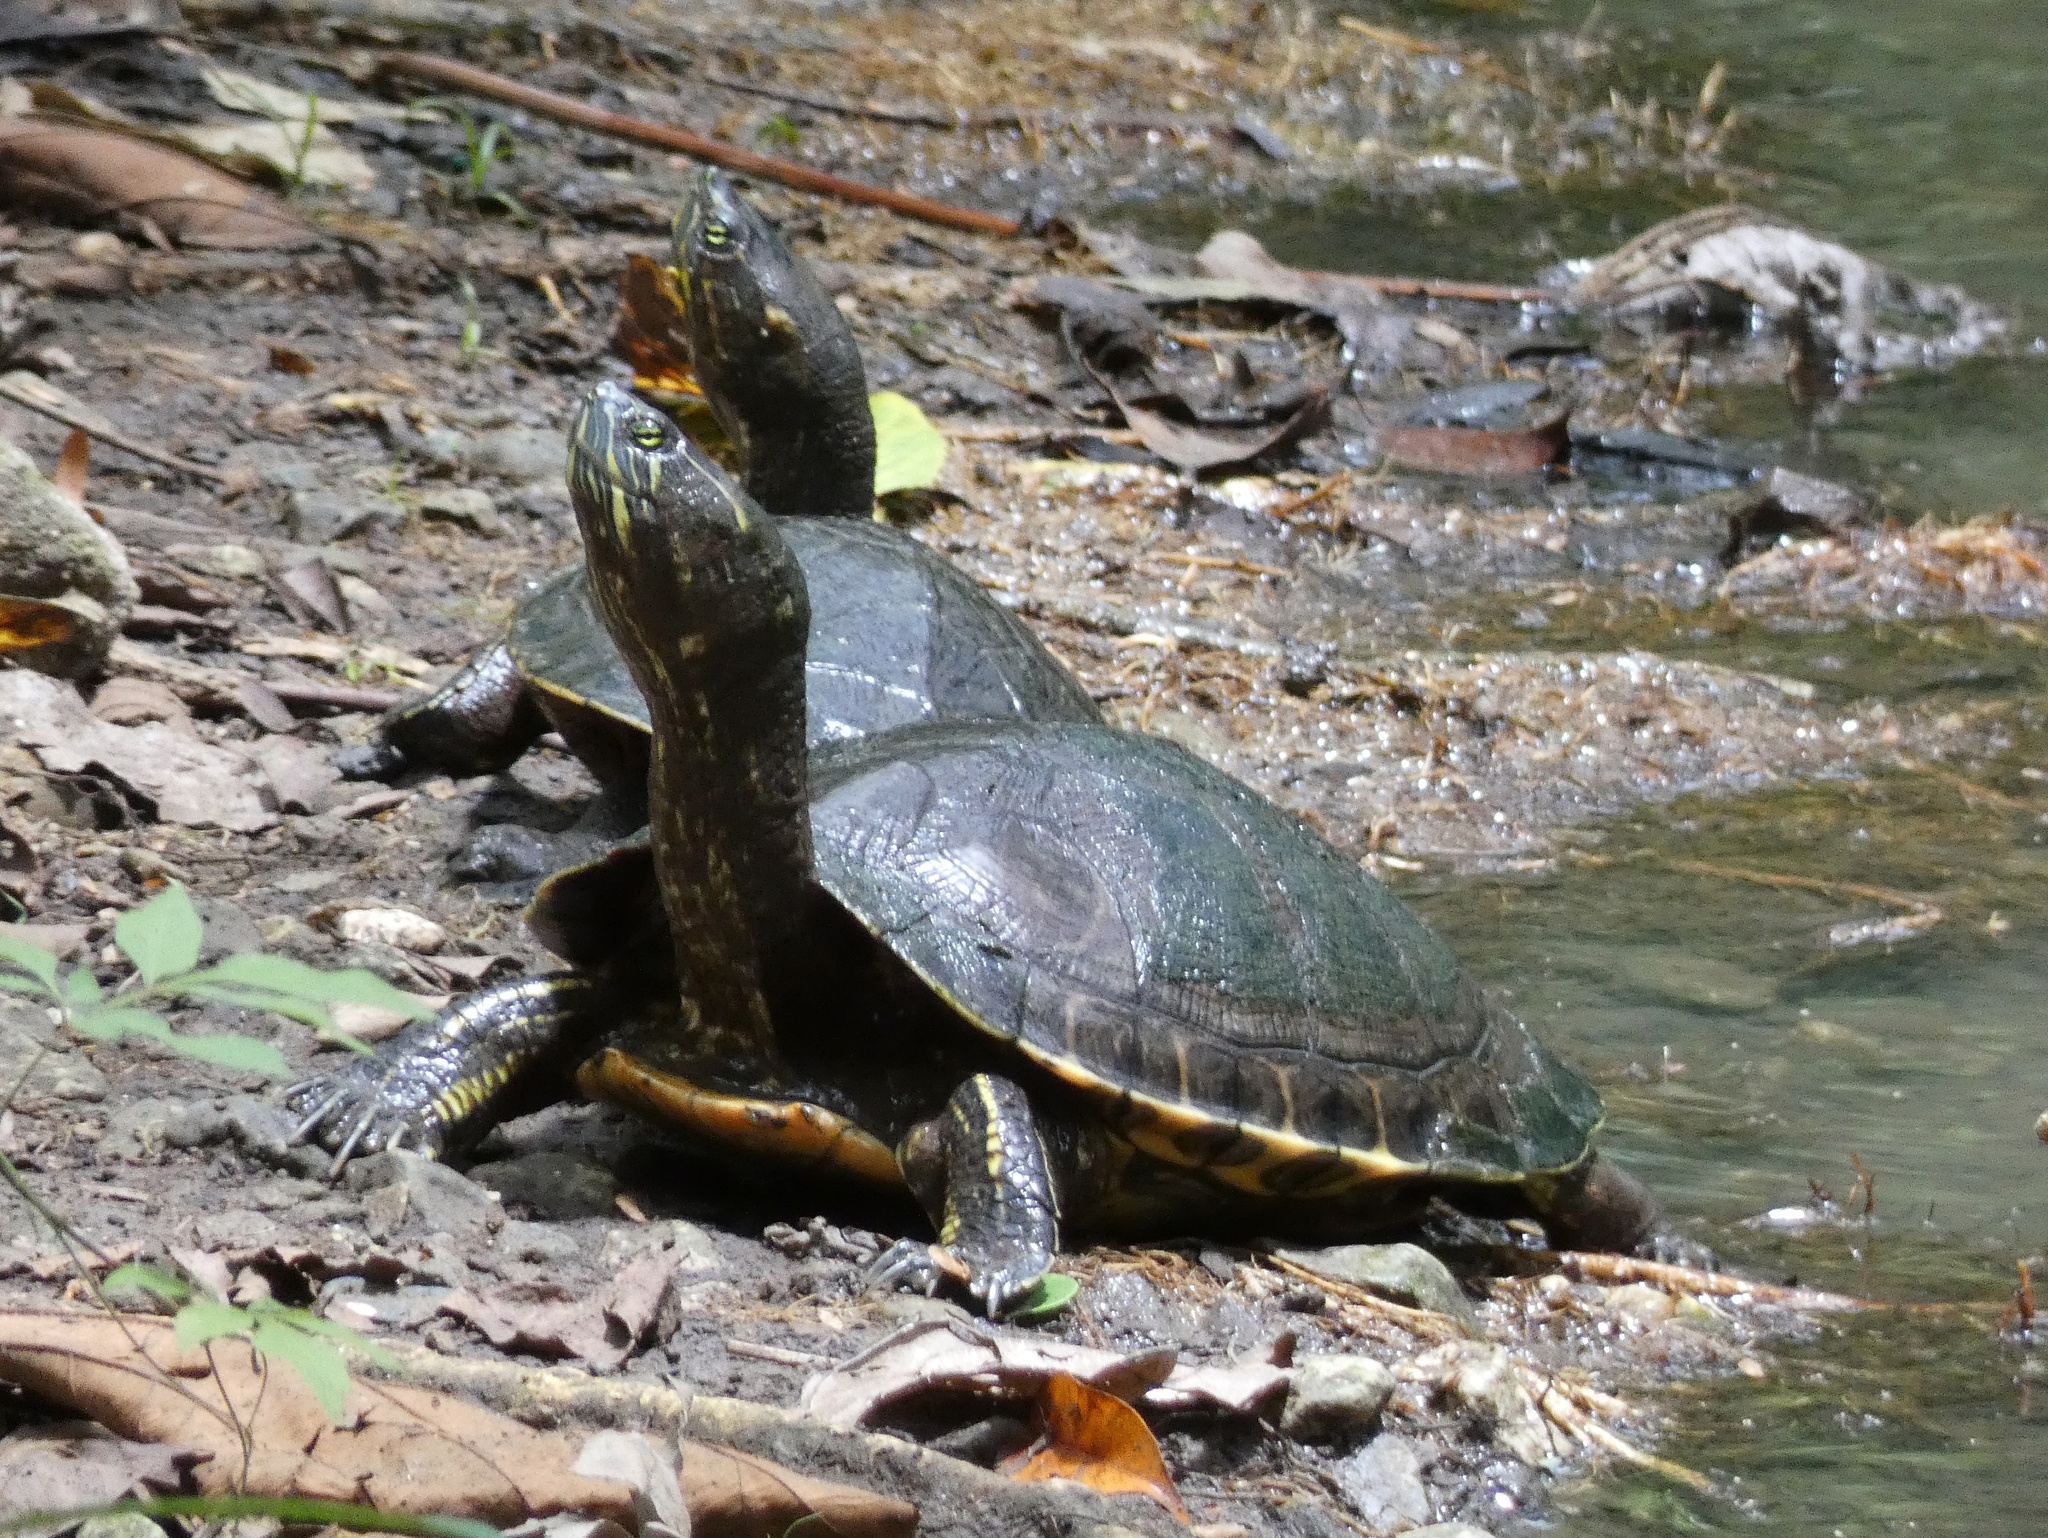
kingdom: Animalia
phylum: Chordata
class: Testudines
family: Emydidae
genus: Trachemys
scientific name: Trachemys venusta
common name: Mesoamerican slider
